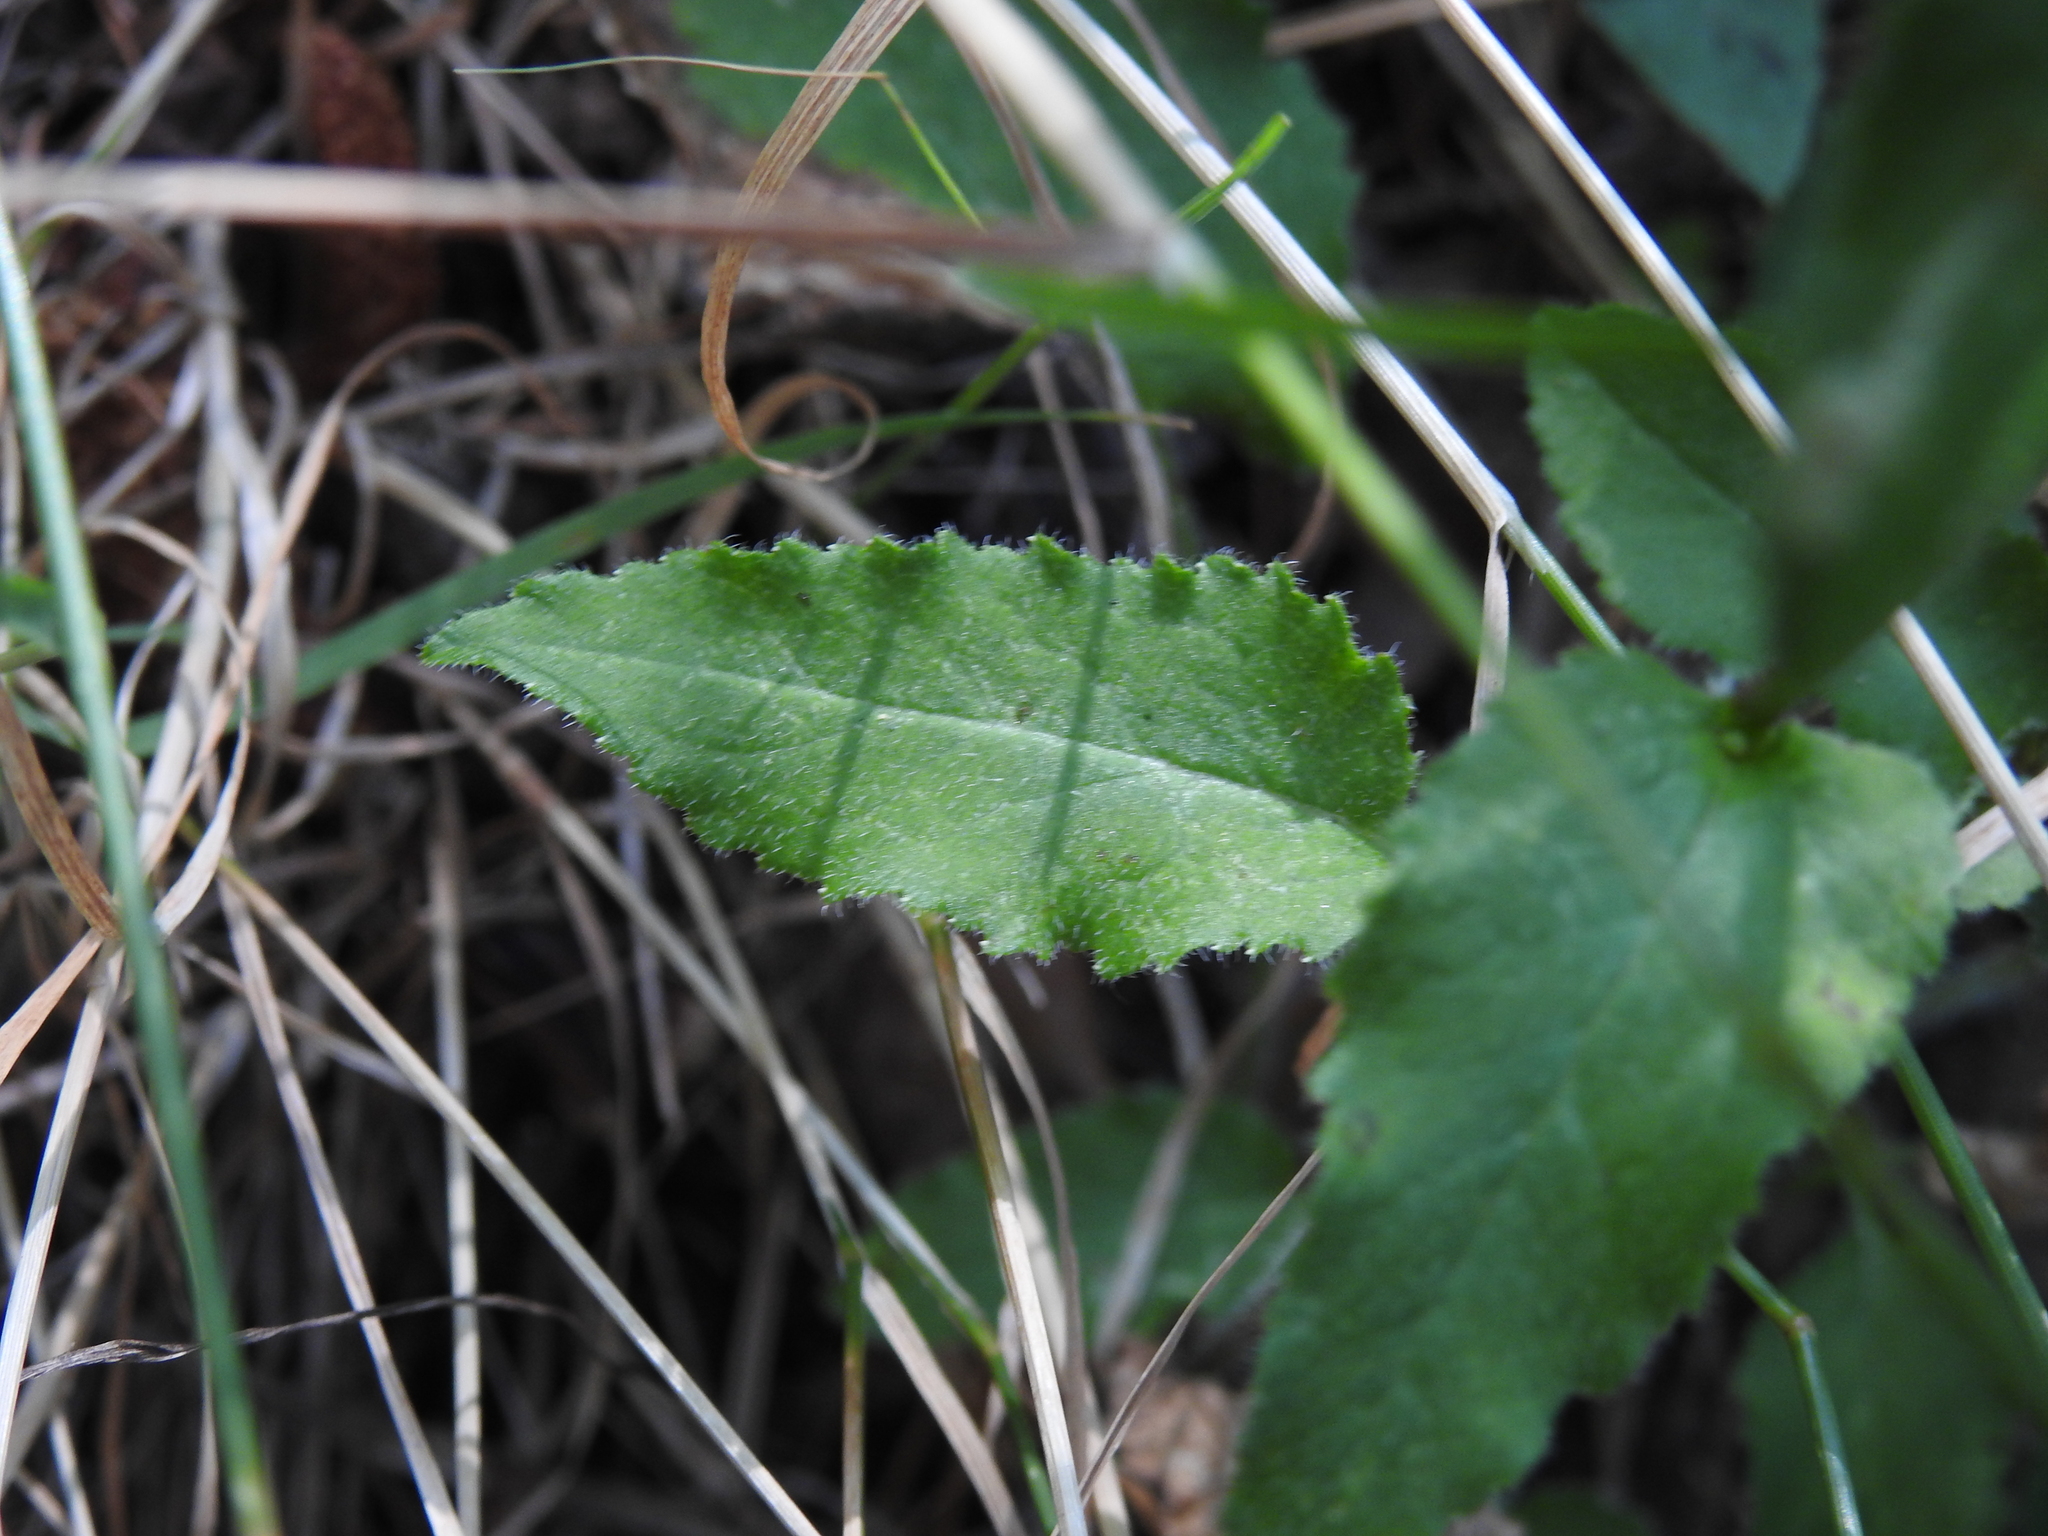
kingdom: Plantae
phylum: Tracheophyta
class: Magnoliopsida
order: Asterales
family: Campanulaceae
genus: Campanula
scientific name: Campanula glomerata
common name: Clustered bellflower
